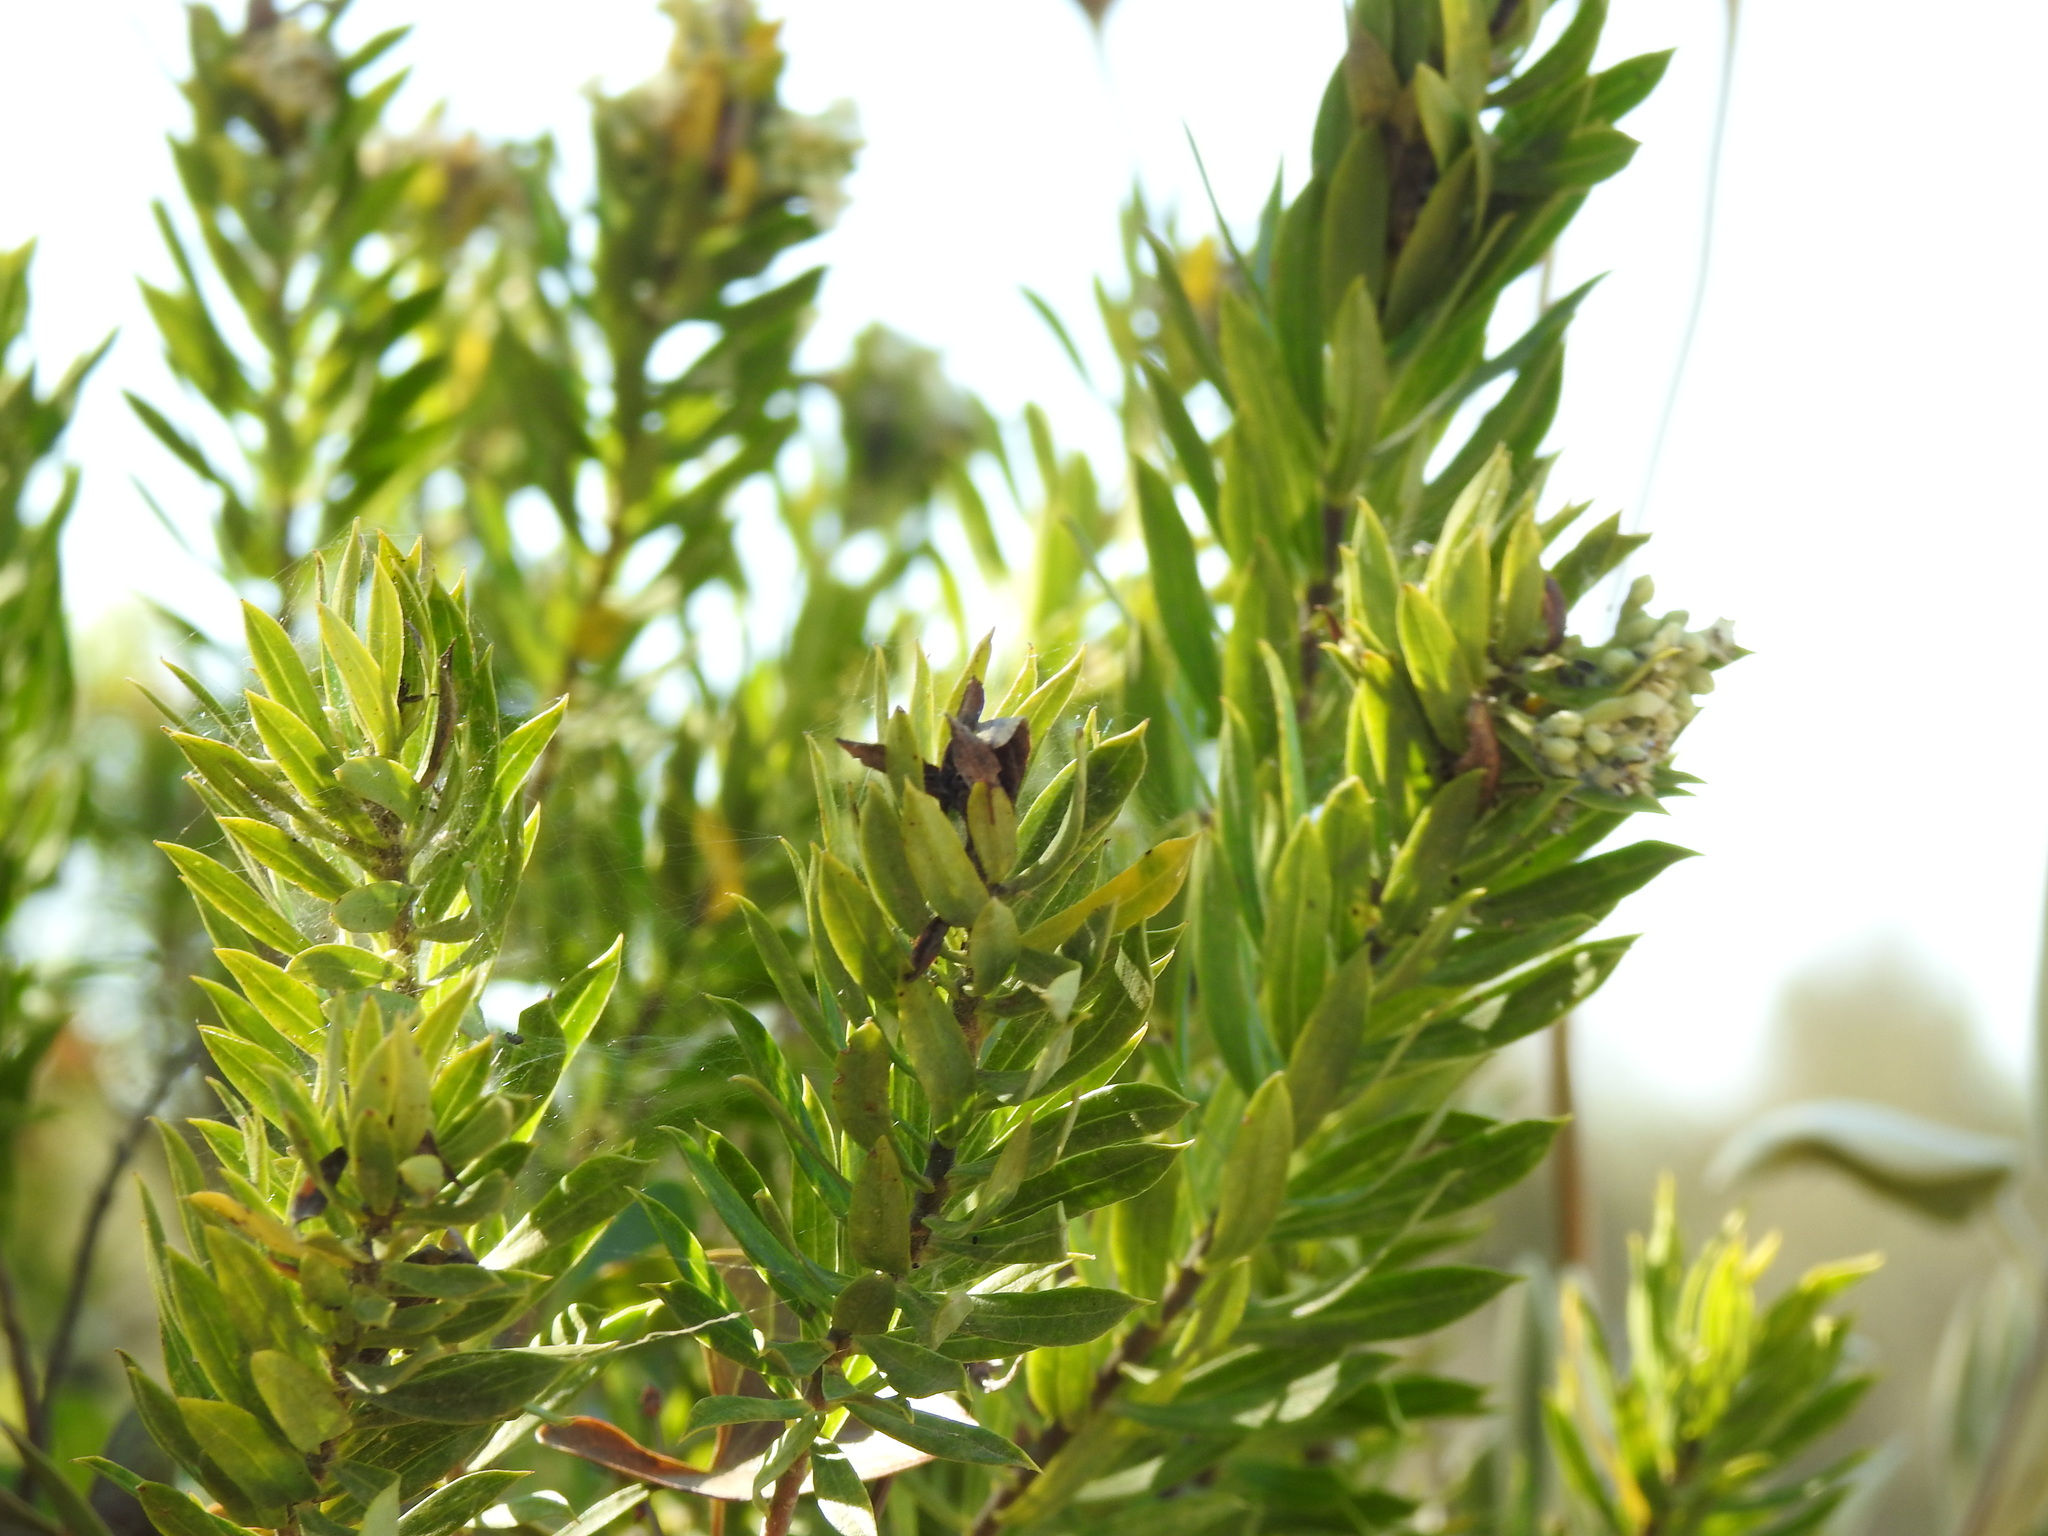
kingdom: Plantae
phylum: Tracheophyta
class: Magnoliopsida
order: Malvales
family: Thymelaeaceae
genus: Daphne
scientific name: Daphne gnidium
